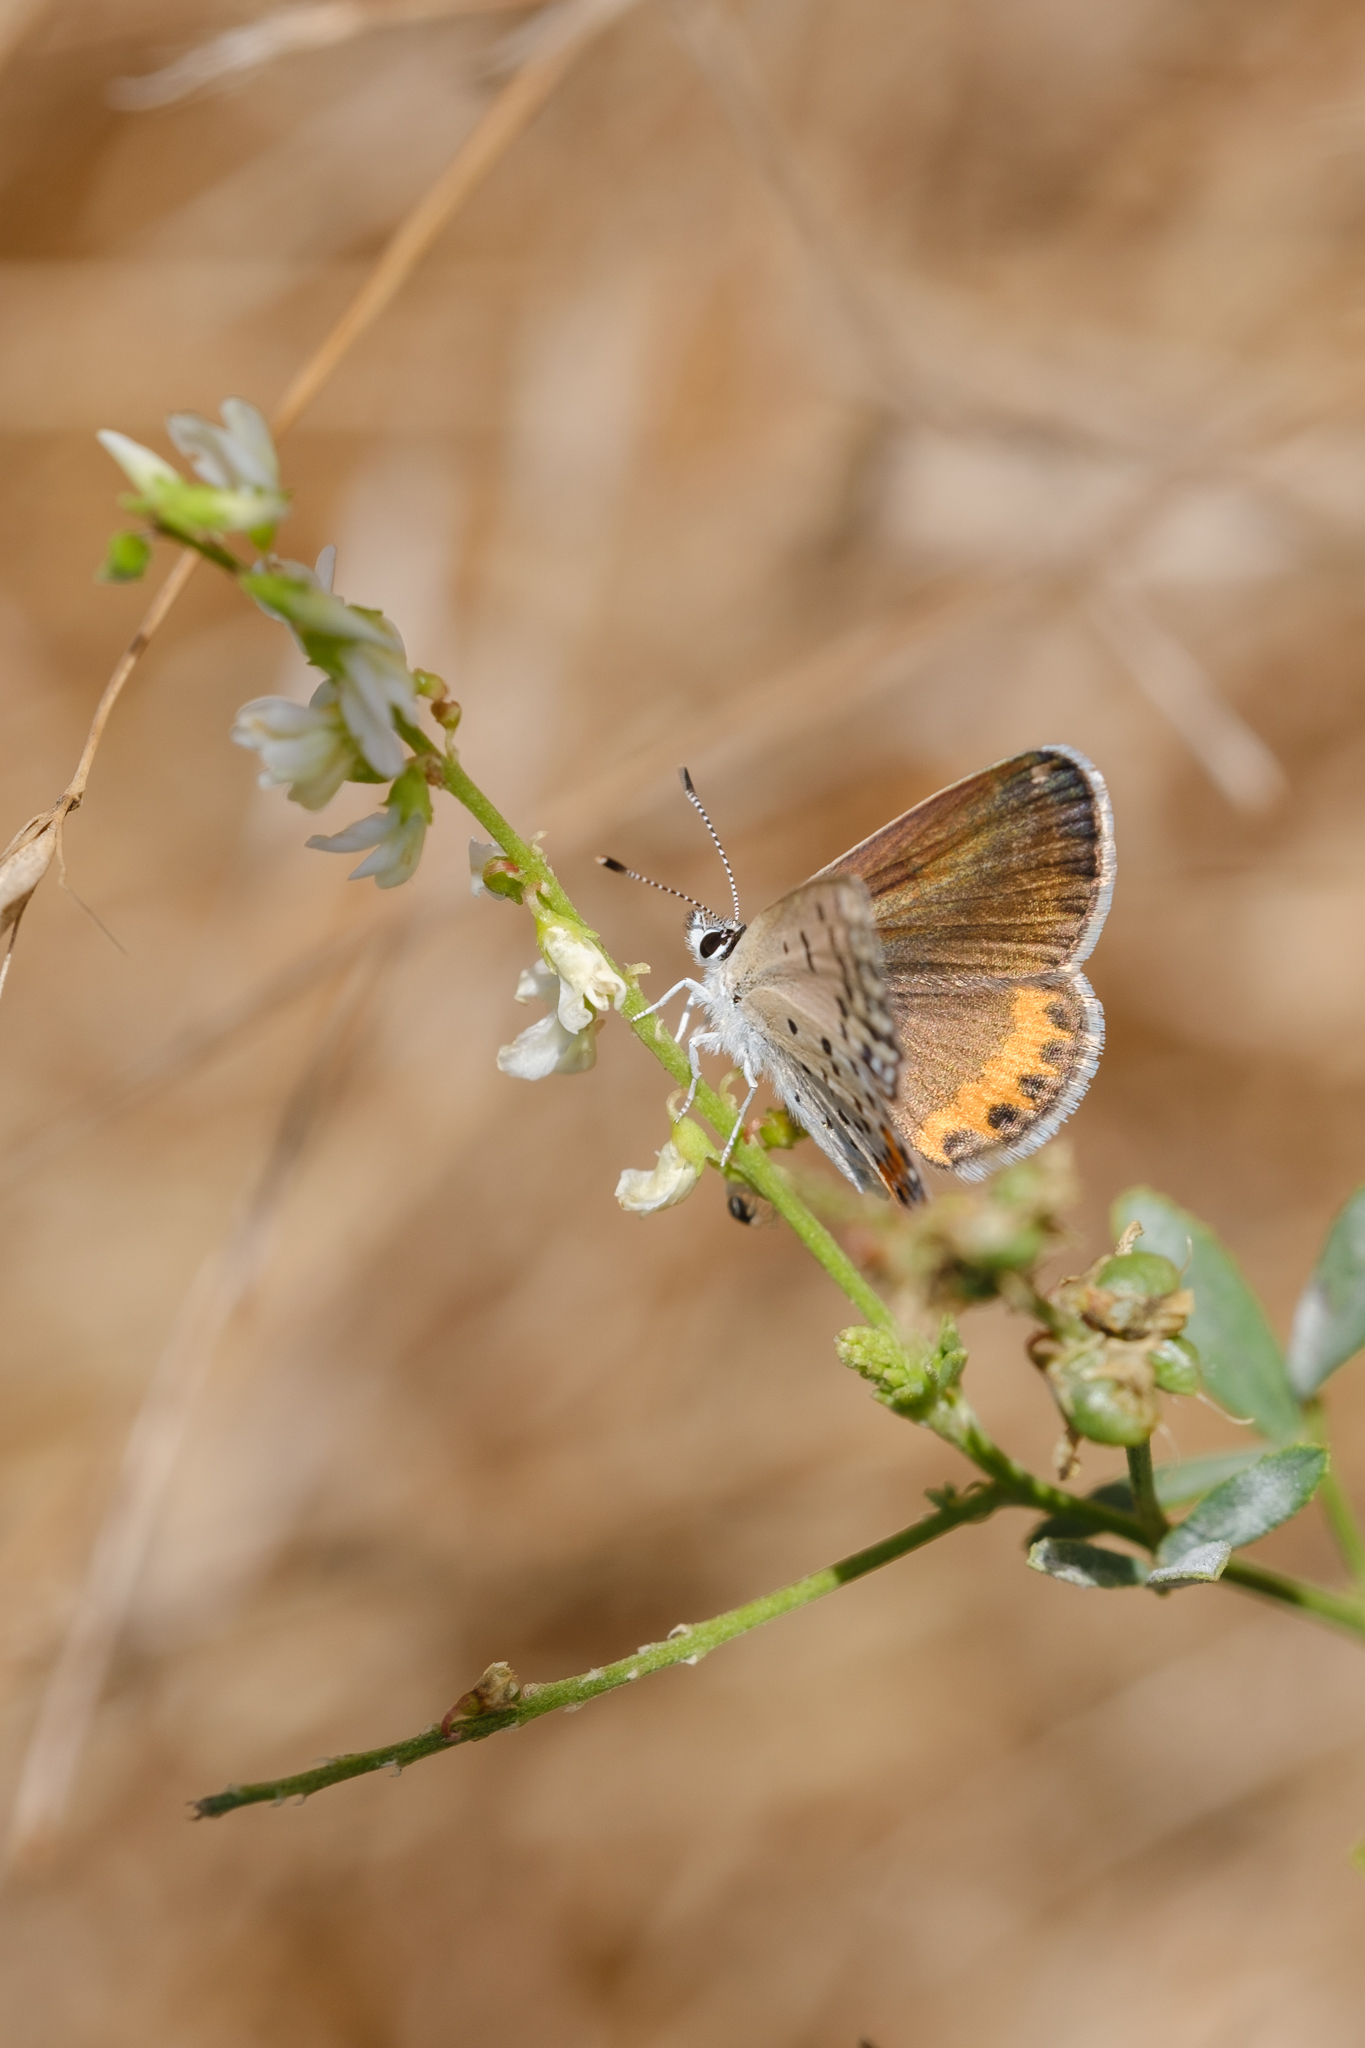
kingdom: Animalia
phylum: Arthropoda
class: Insecta
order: Lepidoptera
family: Lycaenidae
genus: Icaricia
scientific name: Icaricia acmon
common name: Acmon blue
